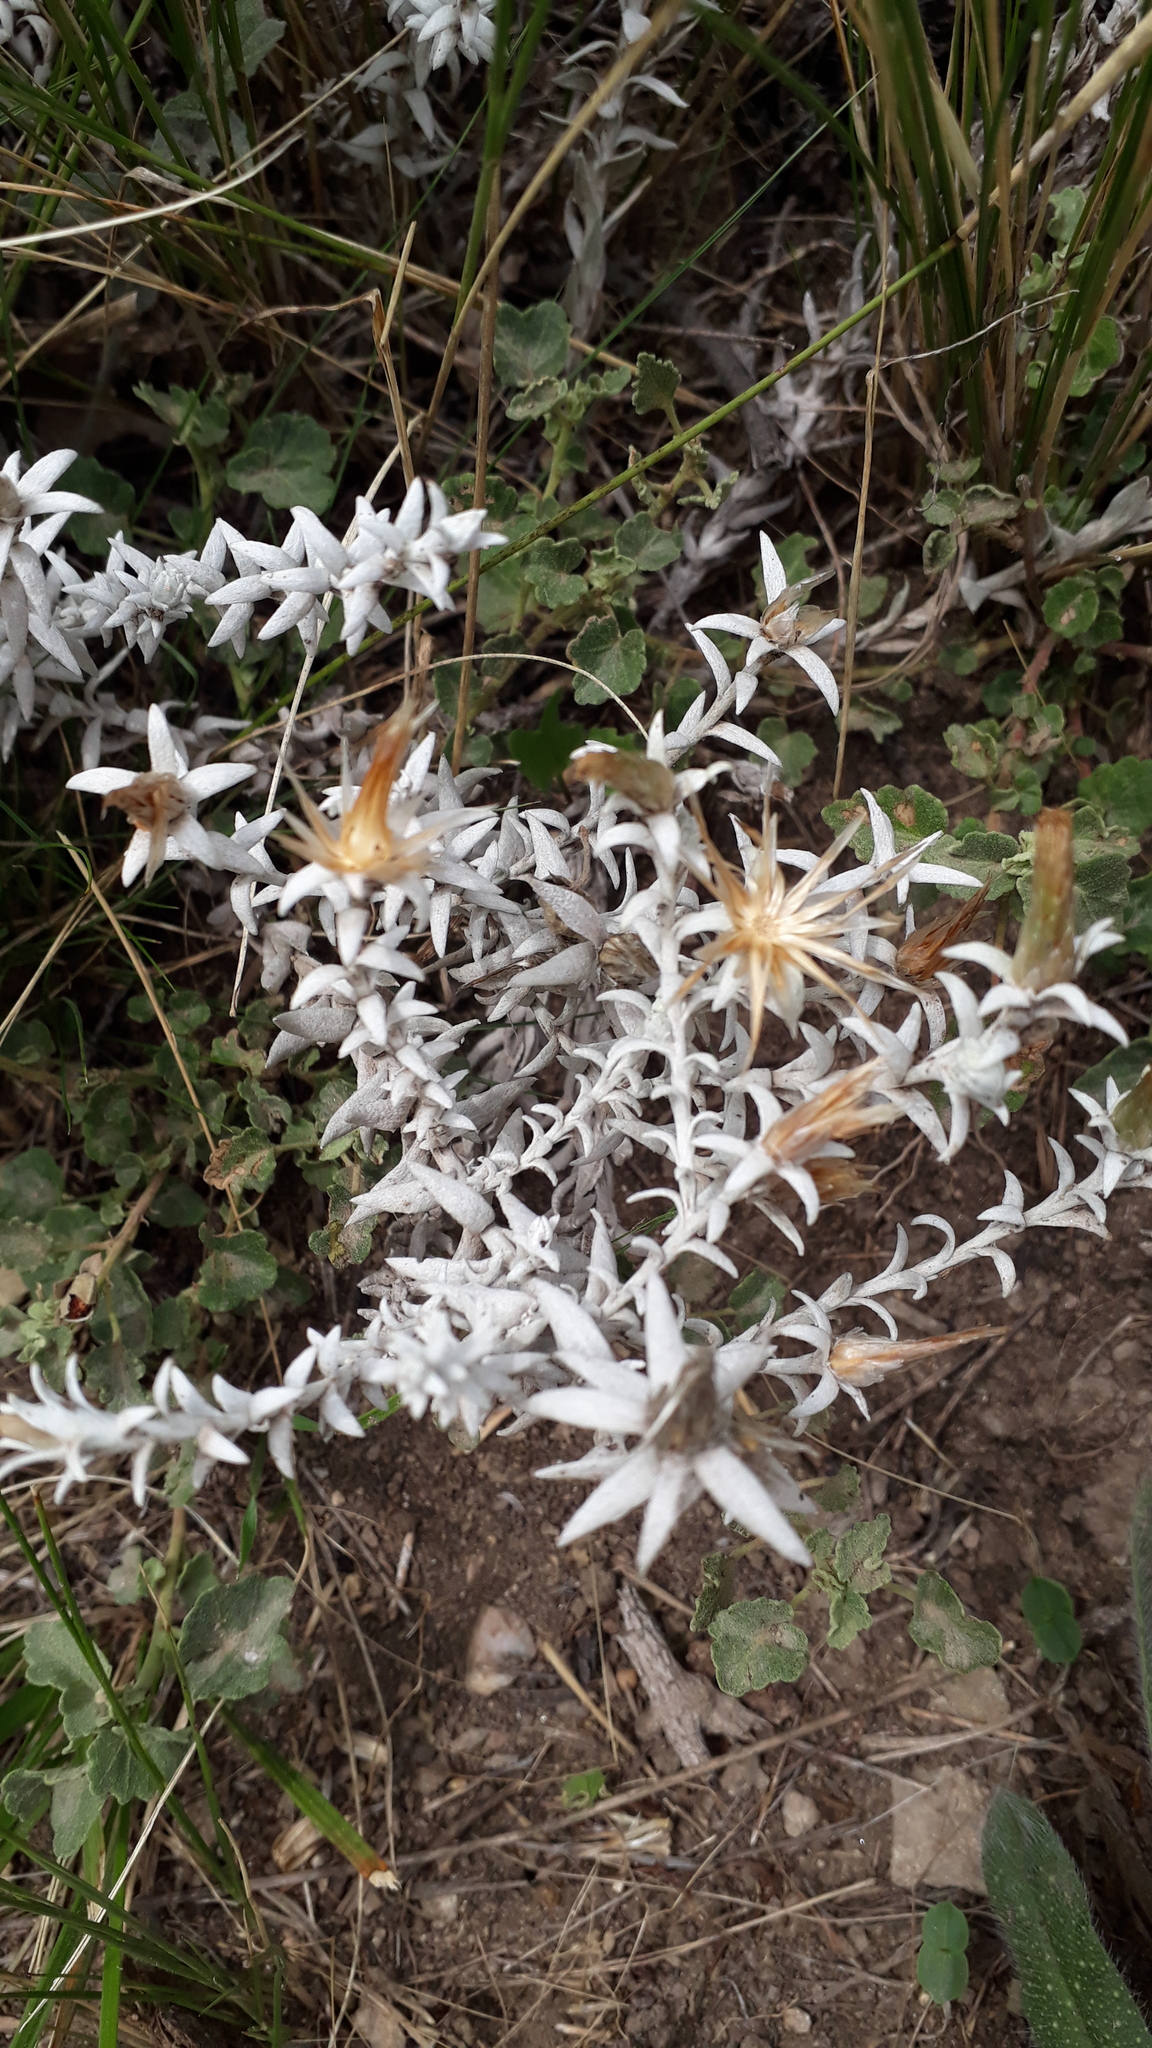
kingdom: Plantae
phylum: Tracheophyta
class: Magnoliopsida
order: Asterales
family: Asteraceae
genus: Lucilia
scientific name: Lucilia acutifolia
